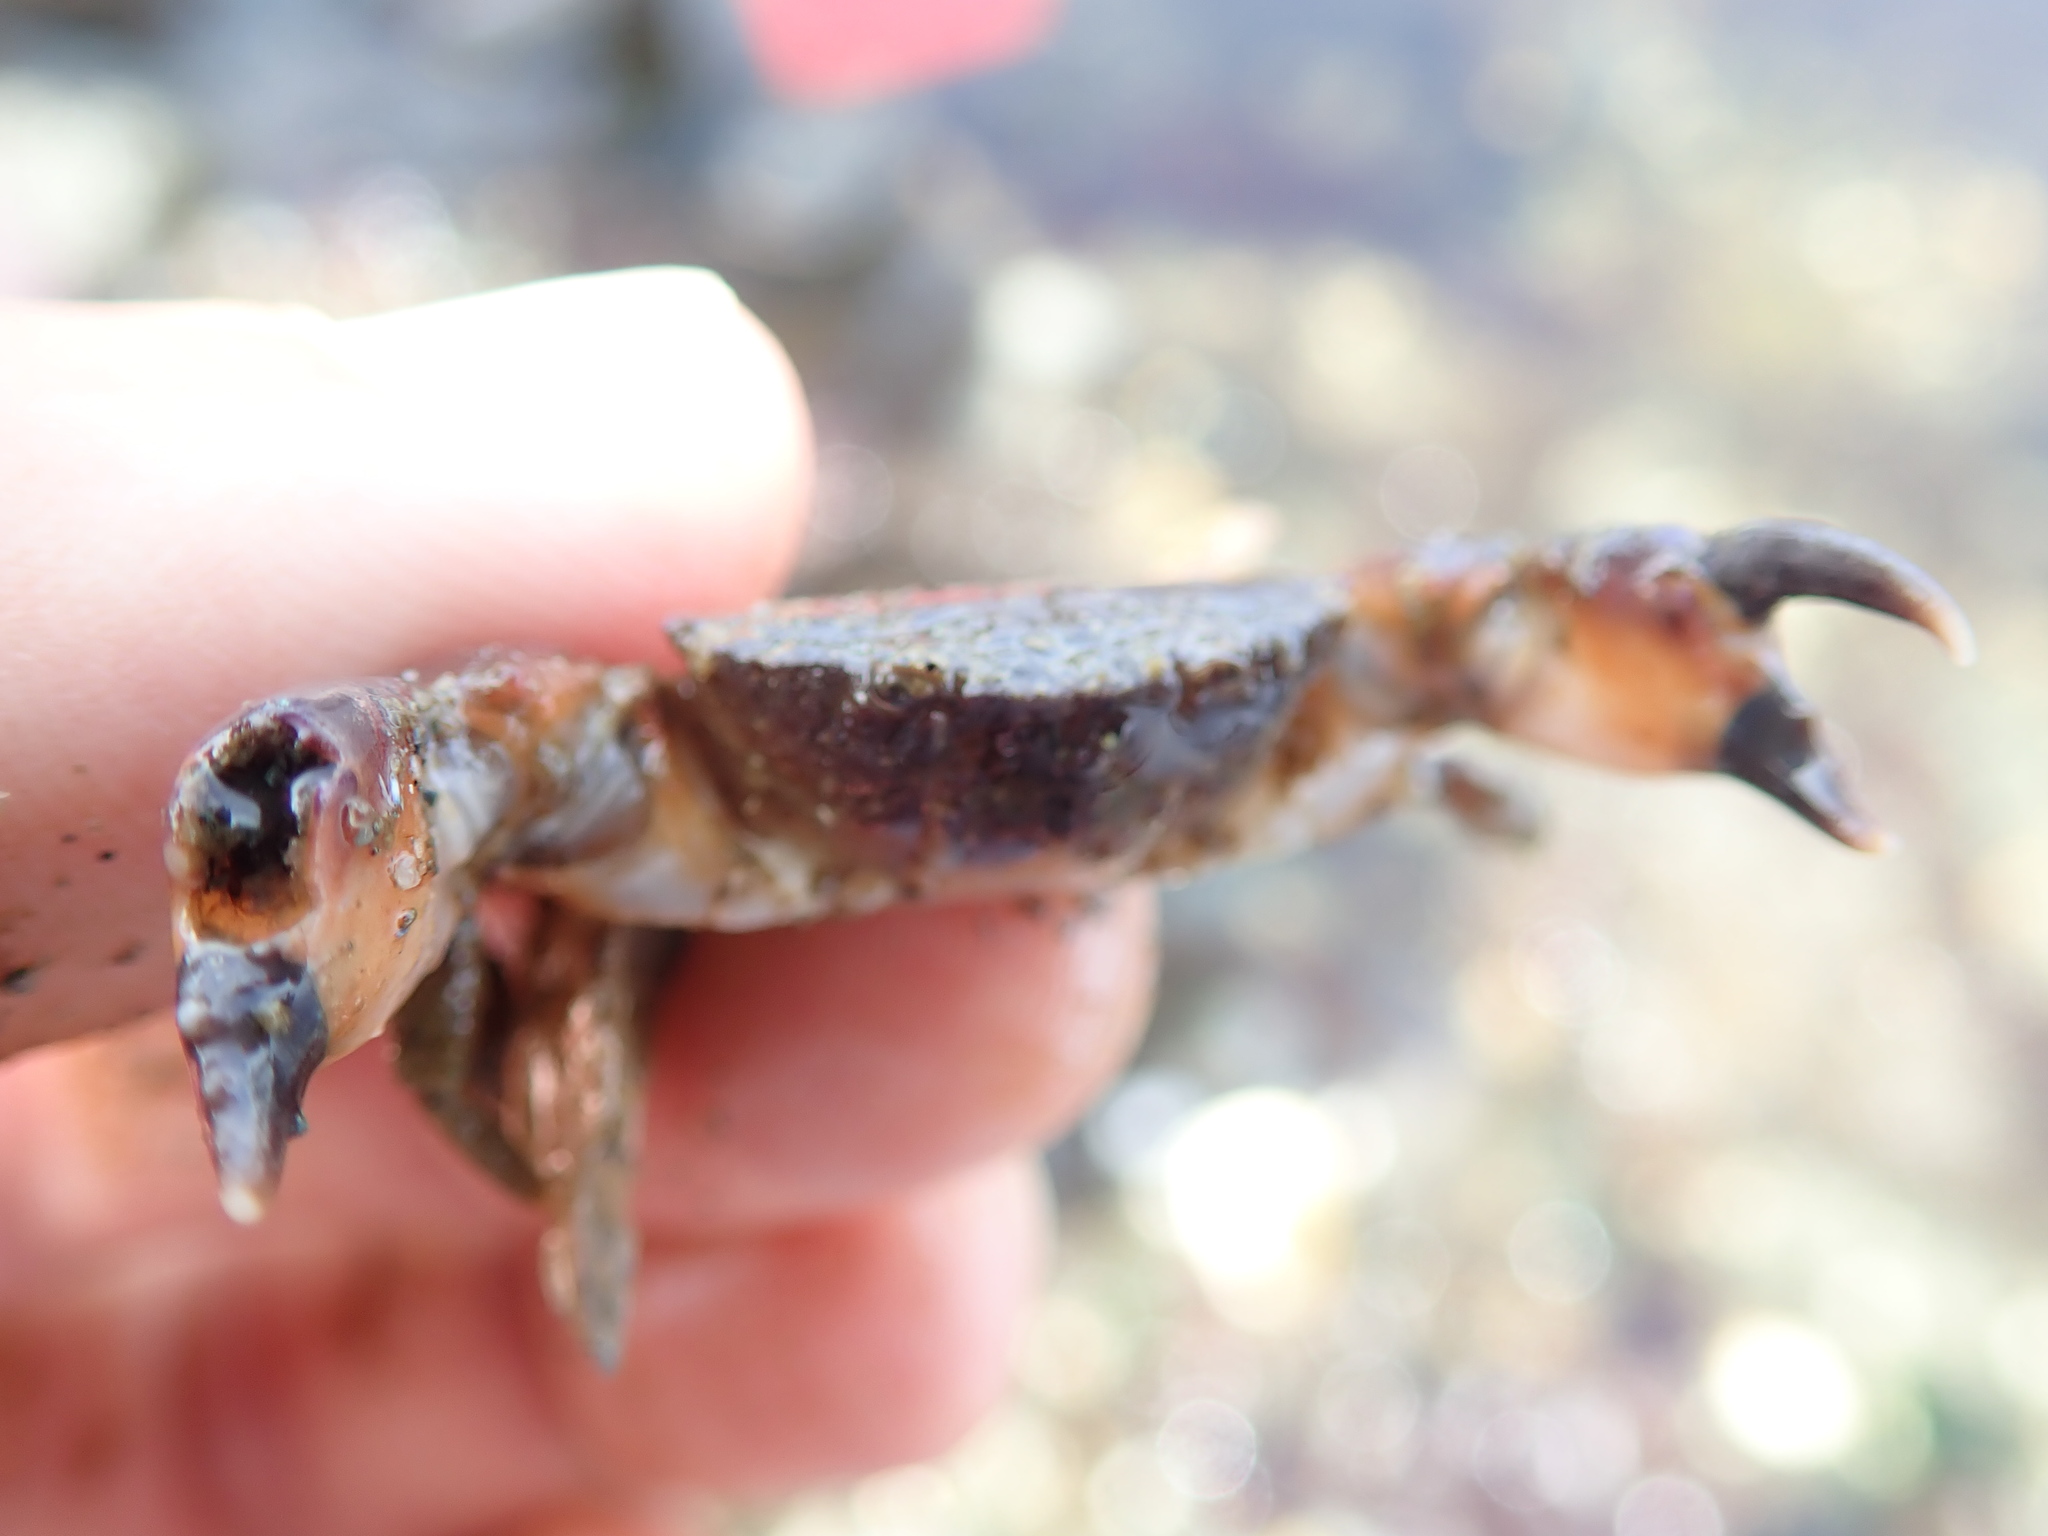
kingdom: Animalia
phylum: Arthropoda
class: Malacostraca
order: Decapoda
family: Panopeidae
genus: Lophopanopeus
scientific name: Lophopanopeus bellus
